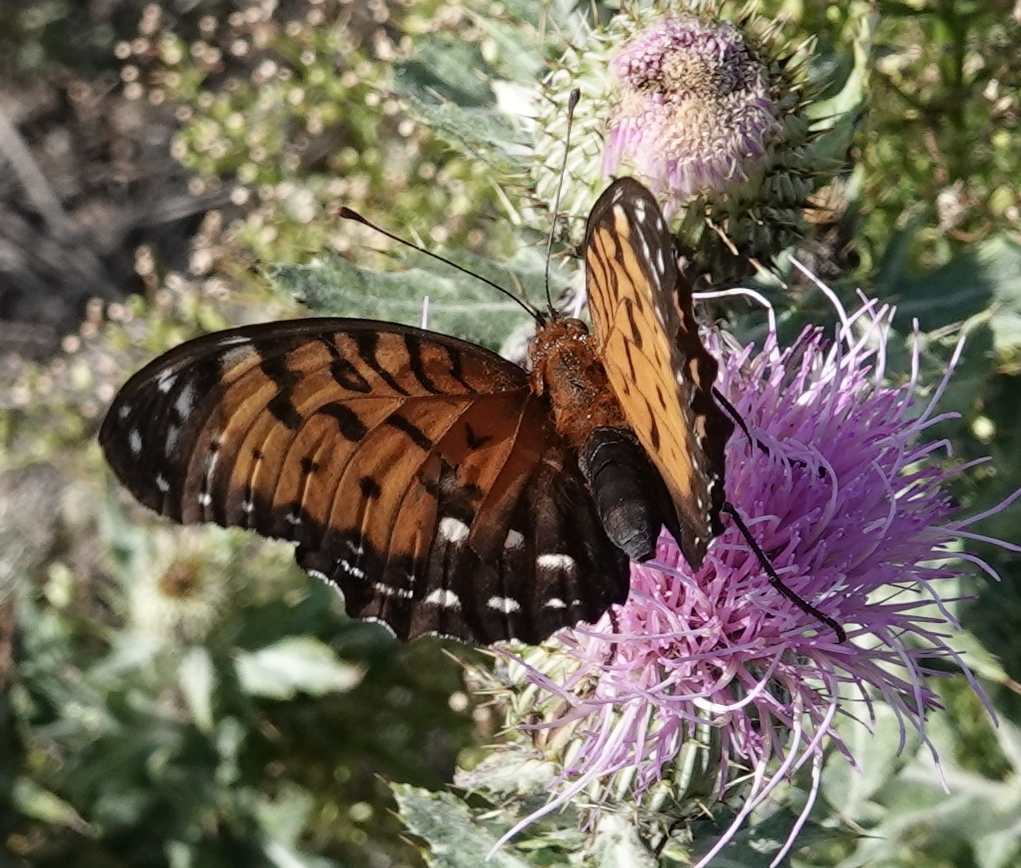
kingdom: Animalia
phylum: Arthropoda
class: Insecta
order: Lepidoptera
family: Nymphalidae
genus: Speyeria
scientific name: Speyeria idalia
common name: Regal fritillary
